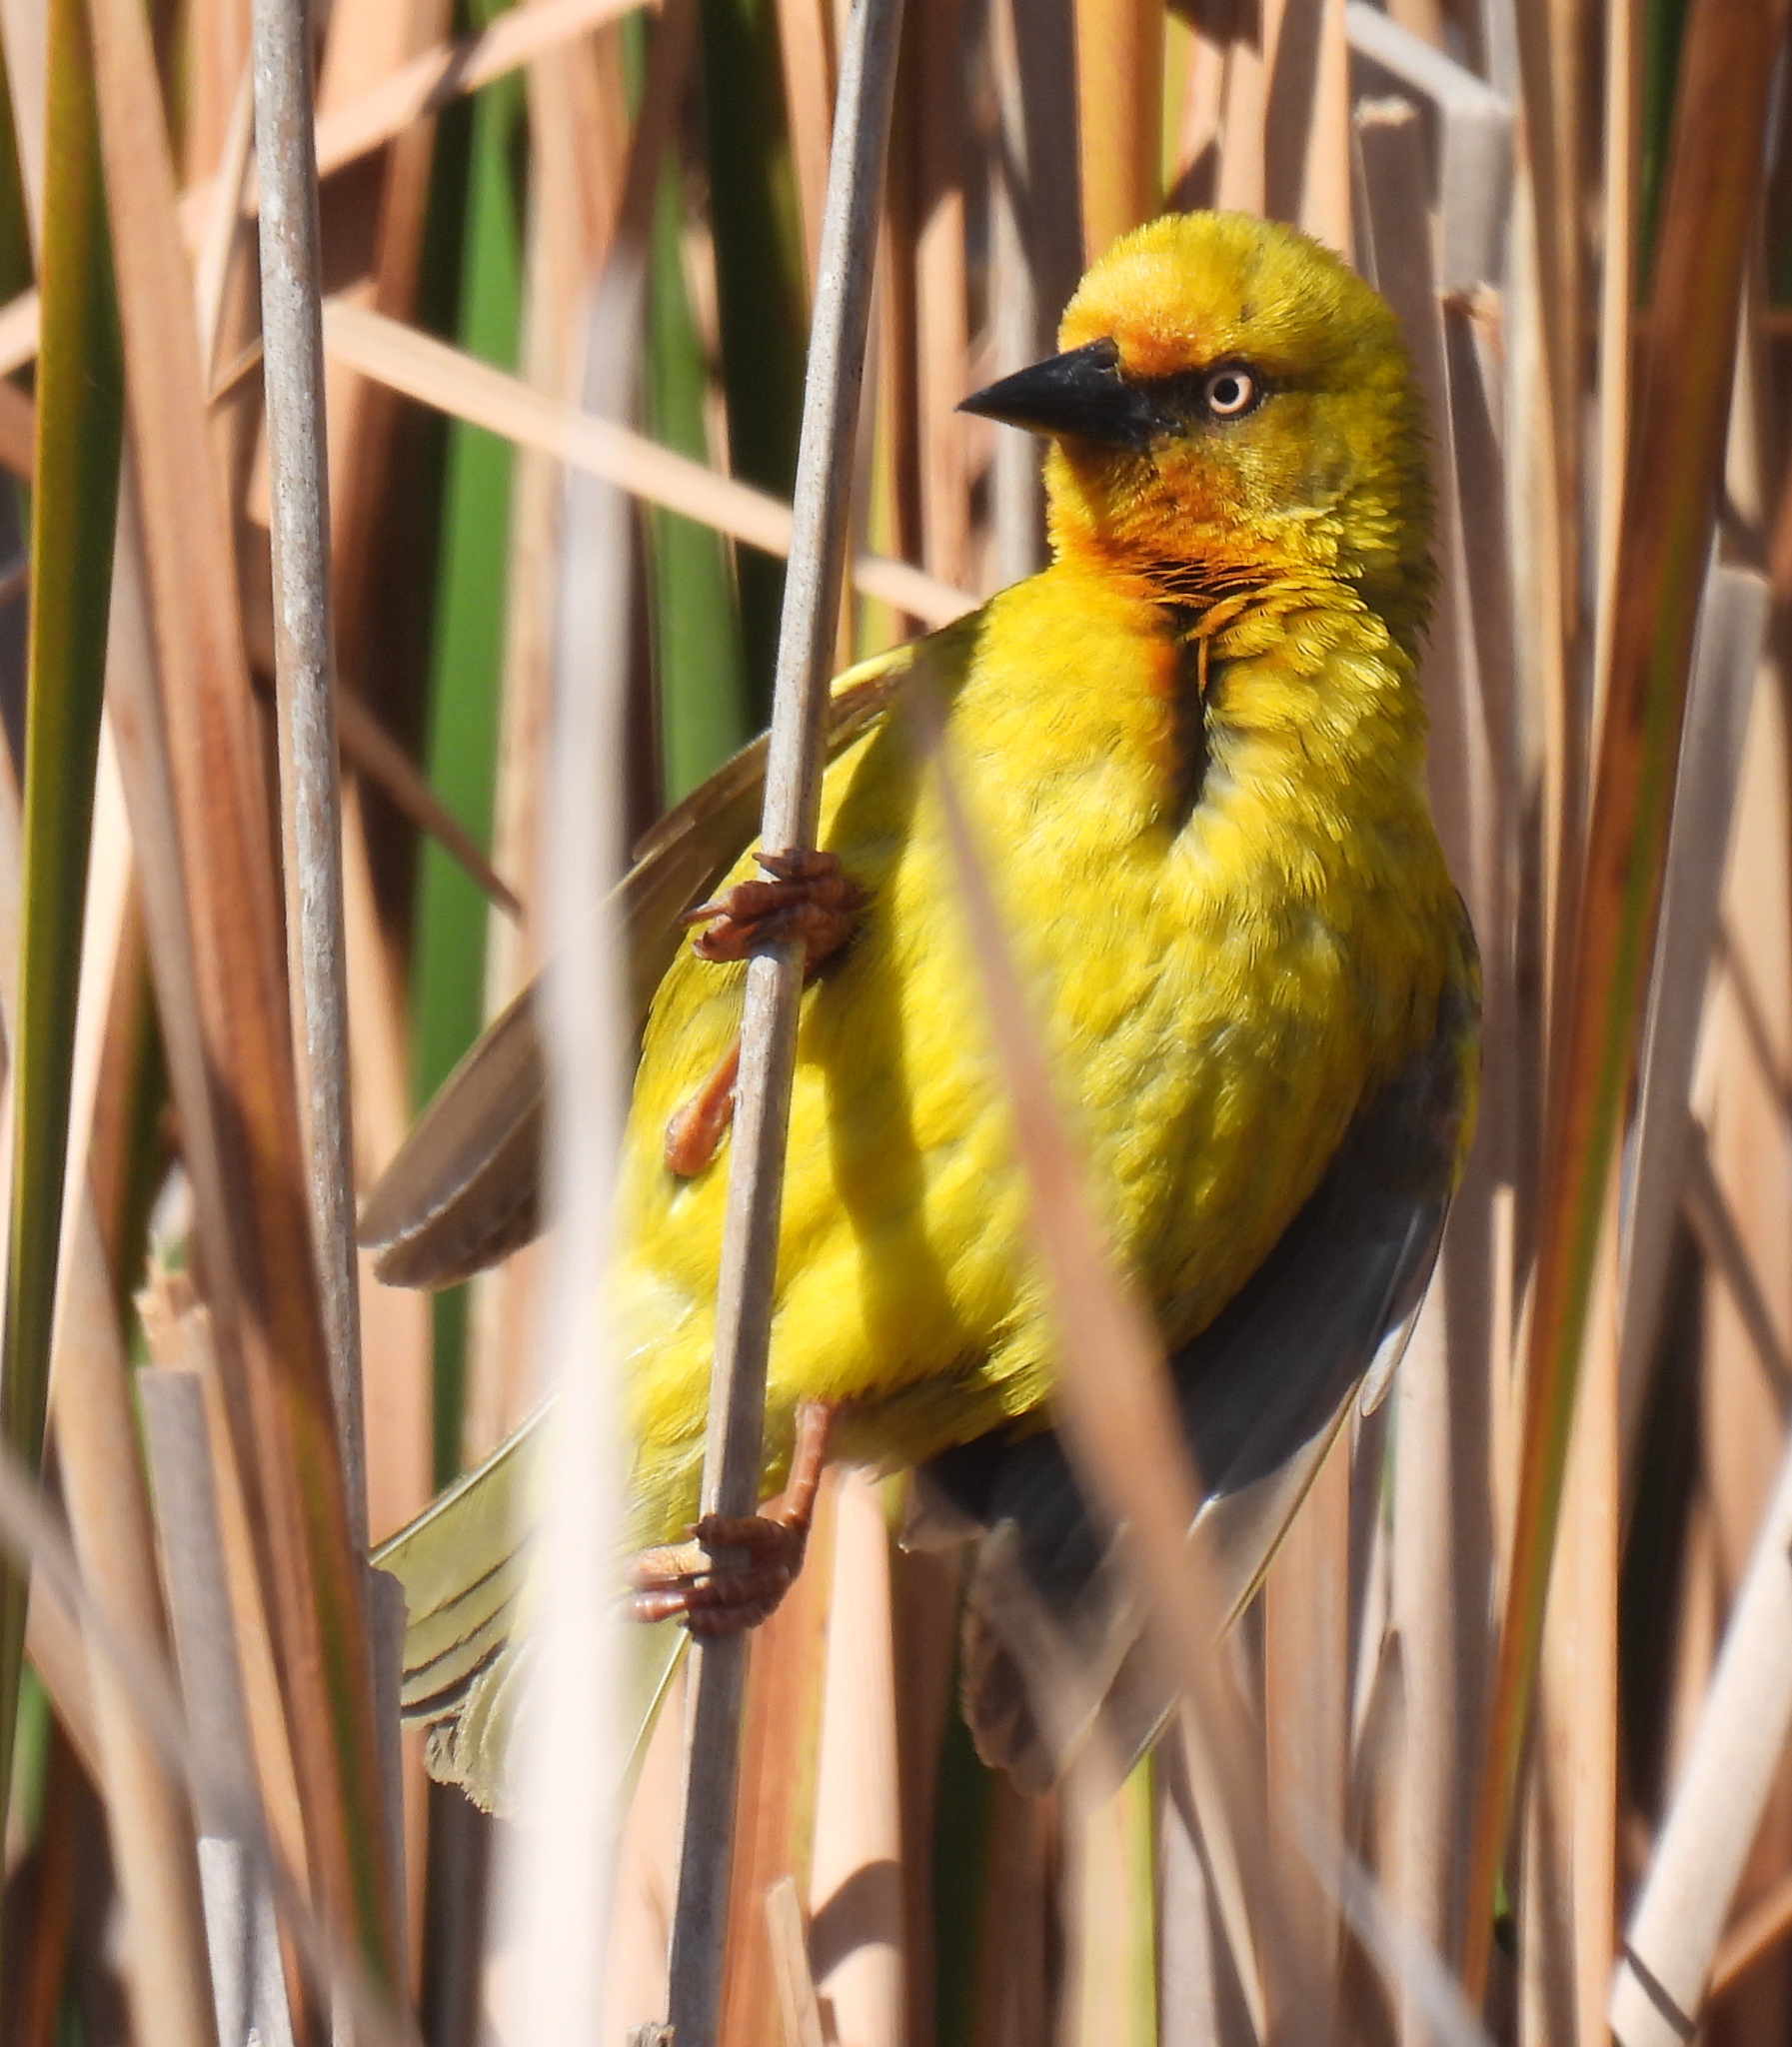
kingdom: Animalia
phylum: Chordata
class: Aves
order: Passeriformes
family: Ploceidae
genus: Ploceus
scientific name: Ploceus capensis
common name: Cape weaver
